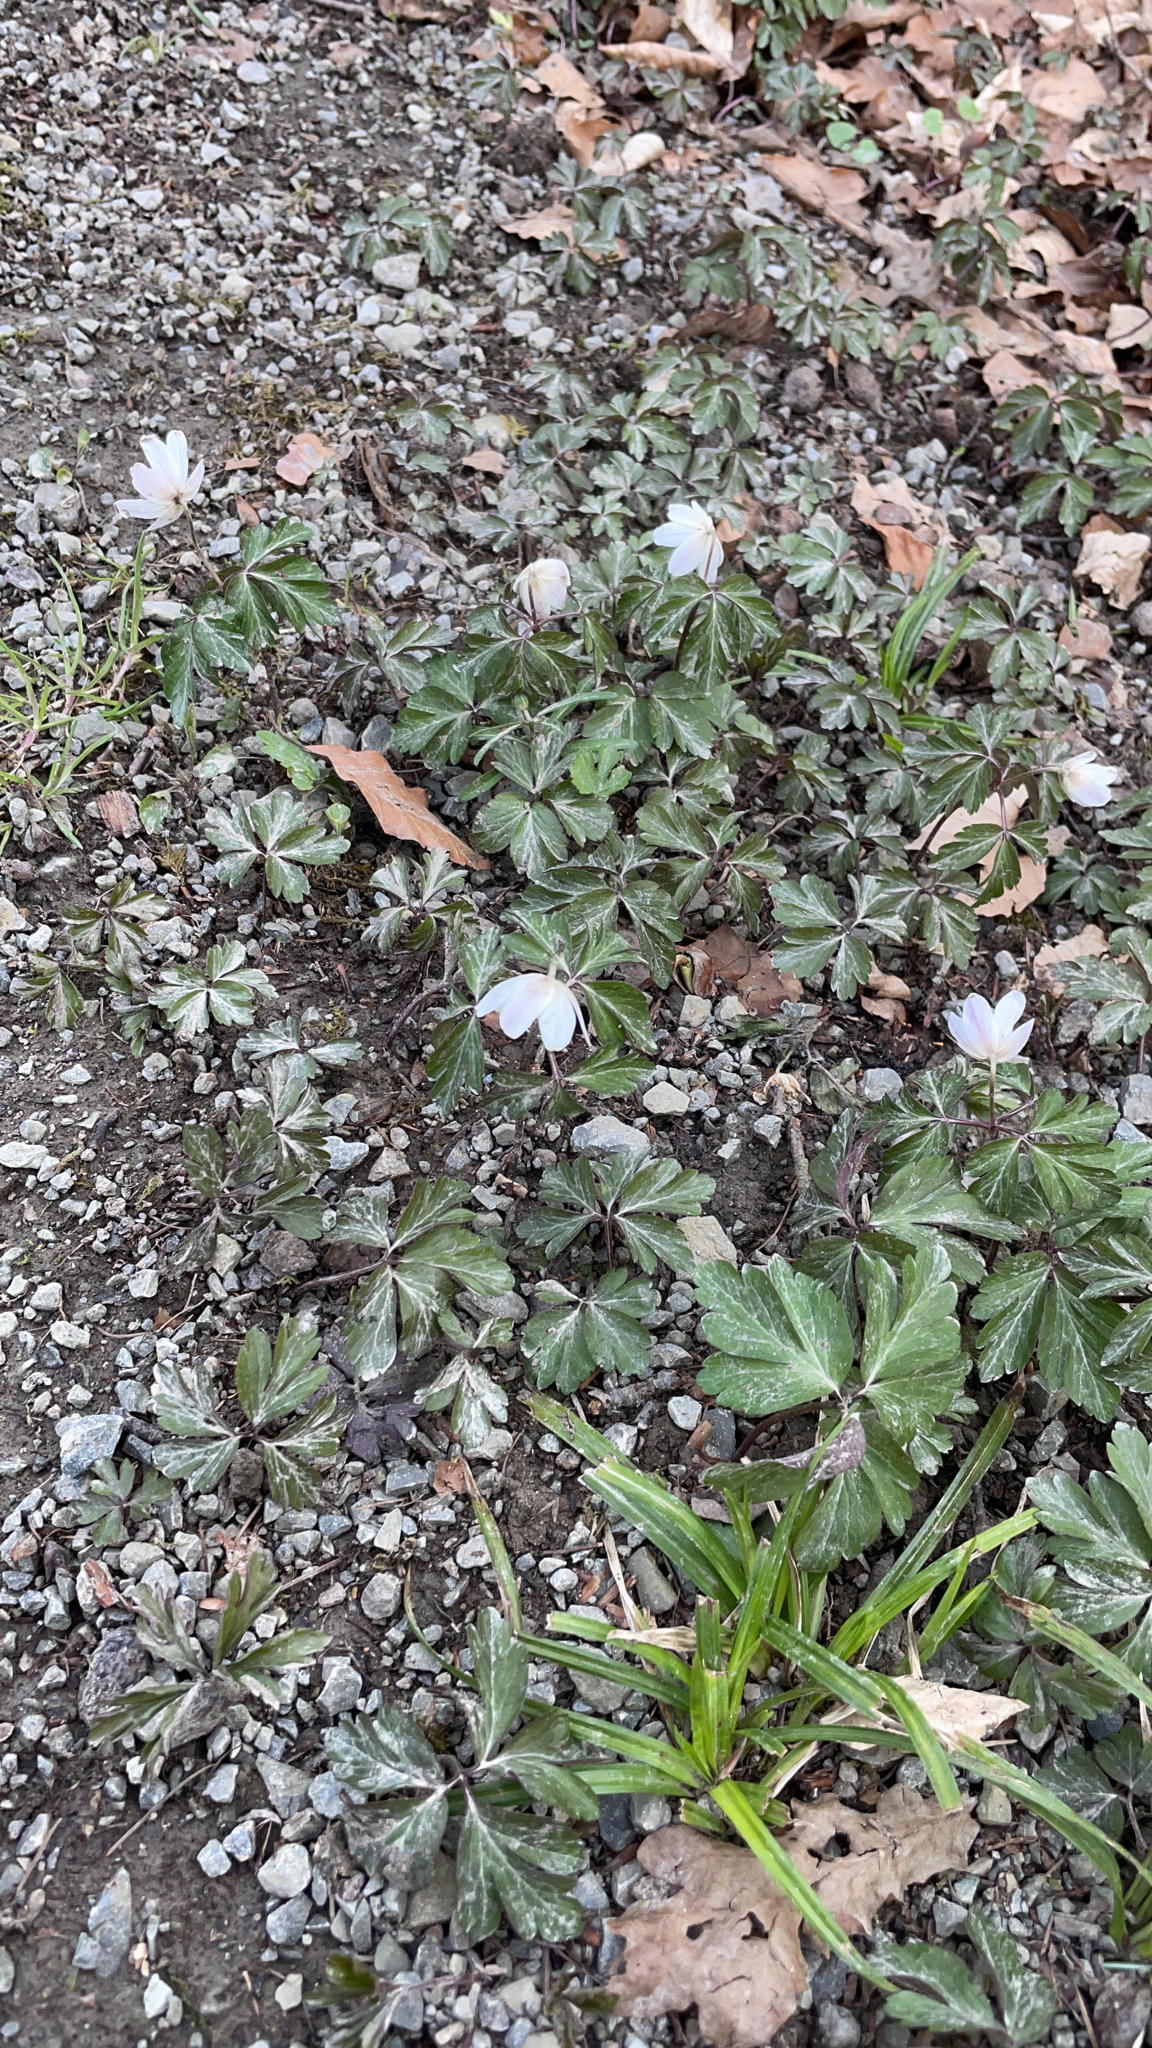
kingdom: Plantae
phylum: Tracheophyta
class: Magnoliopsida
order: Ranunculales
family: Ranunculaceae
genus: Anemone
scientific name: Anemone nemorosa
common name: Wood anemone
